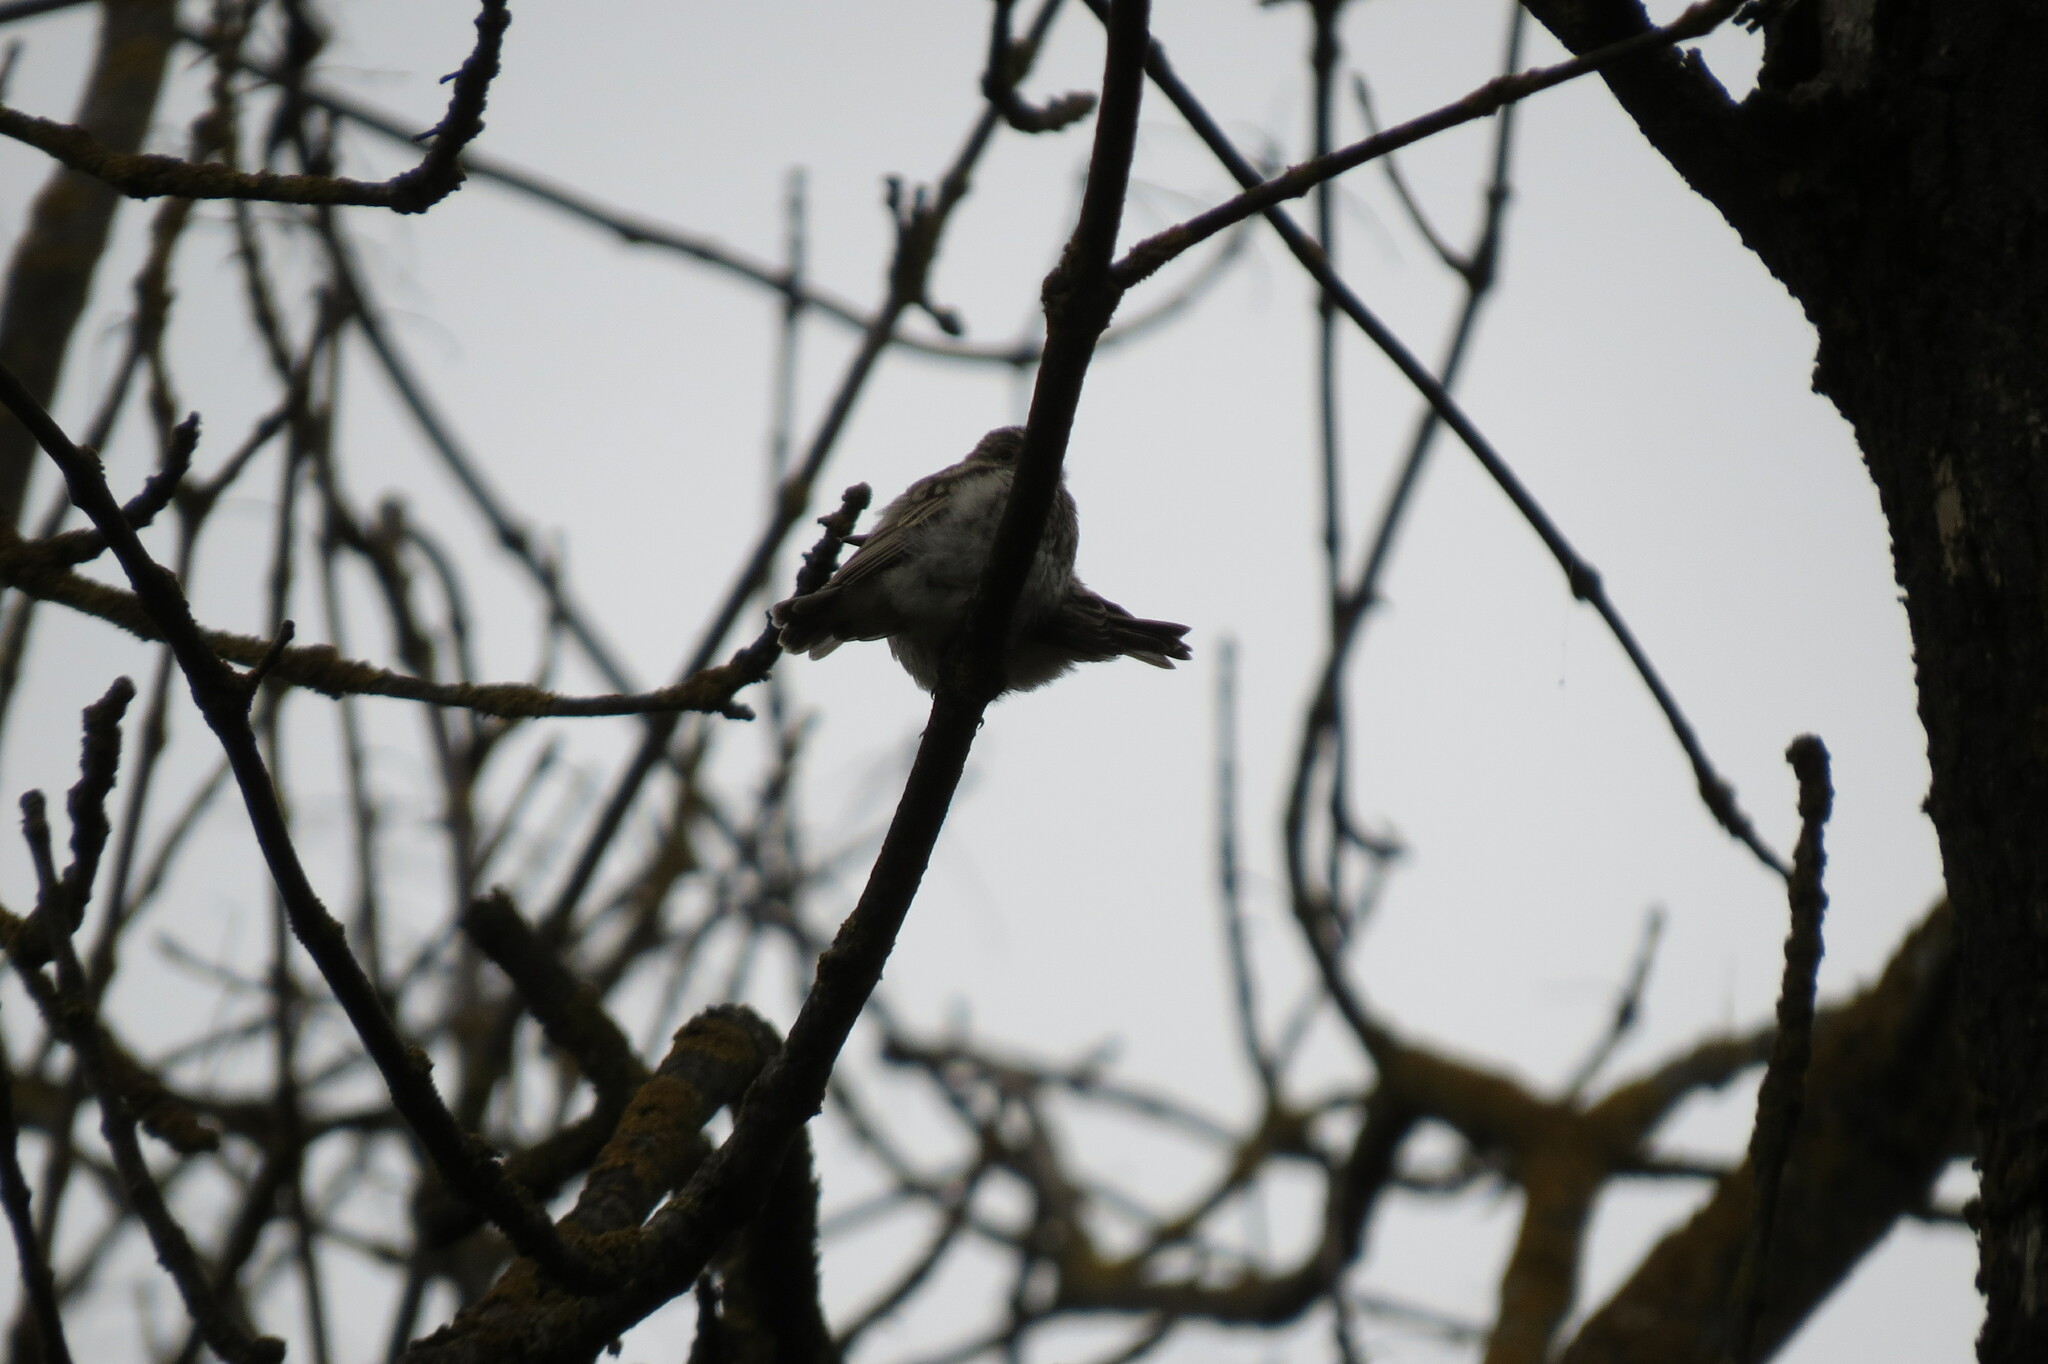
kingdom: Animalia
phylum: Chordata
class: Aves
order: Passeriformes
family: Muscicapidae
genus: Muscicapa
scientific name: Muscicapa striata
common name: Spotted flycatcher
